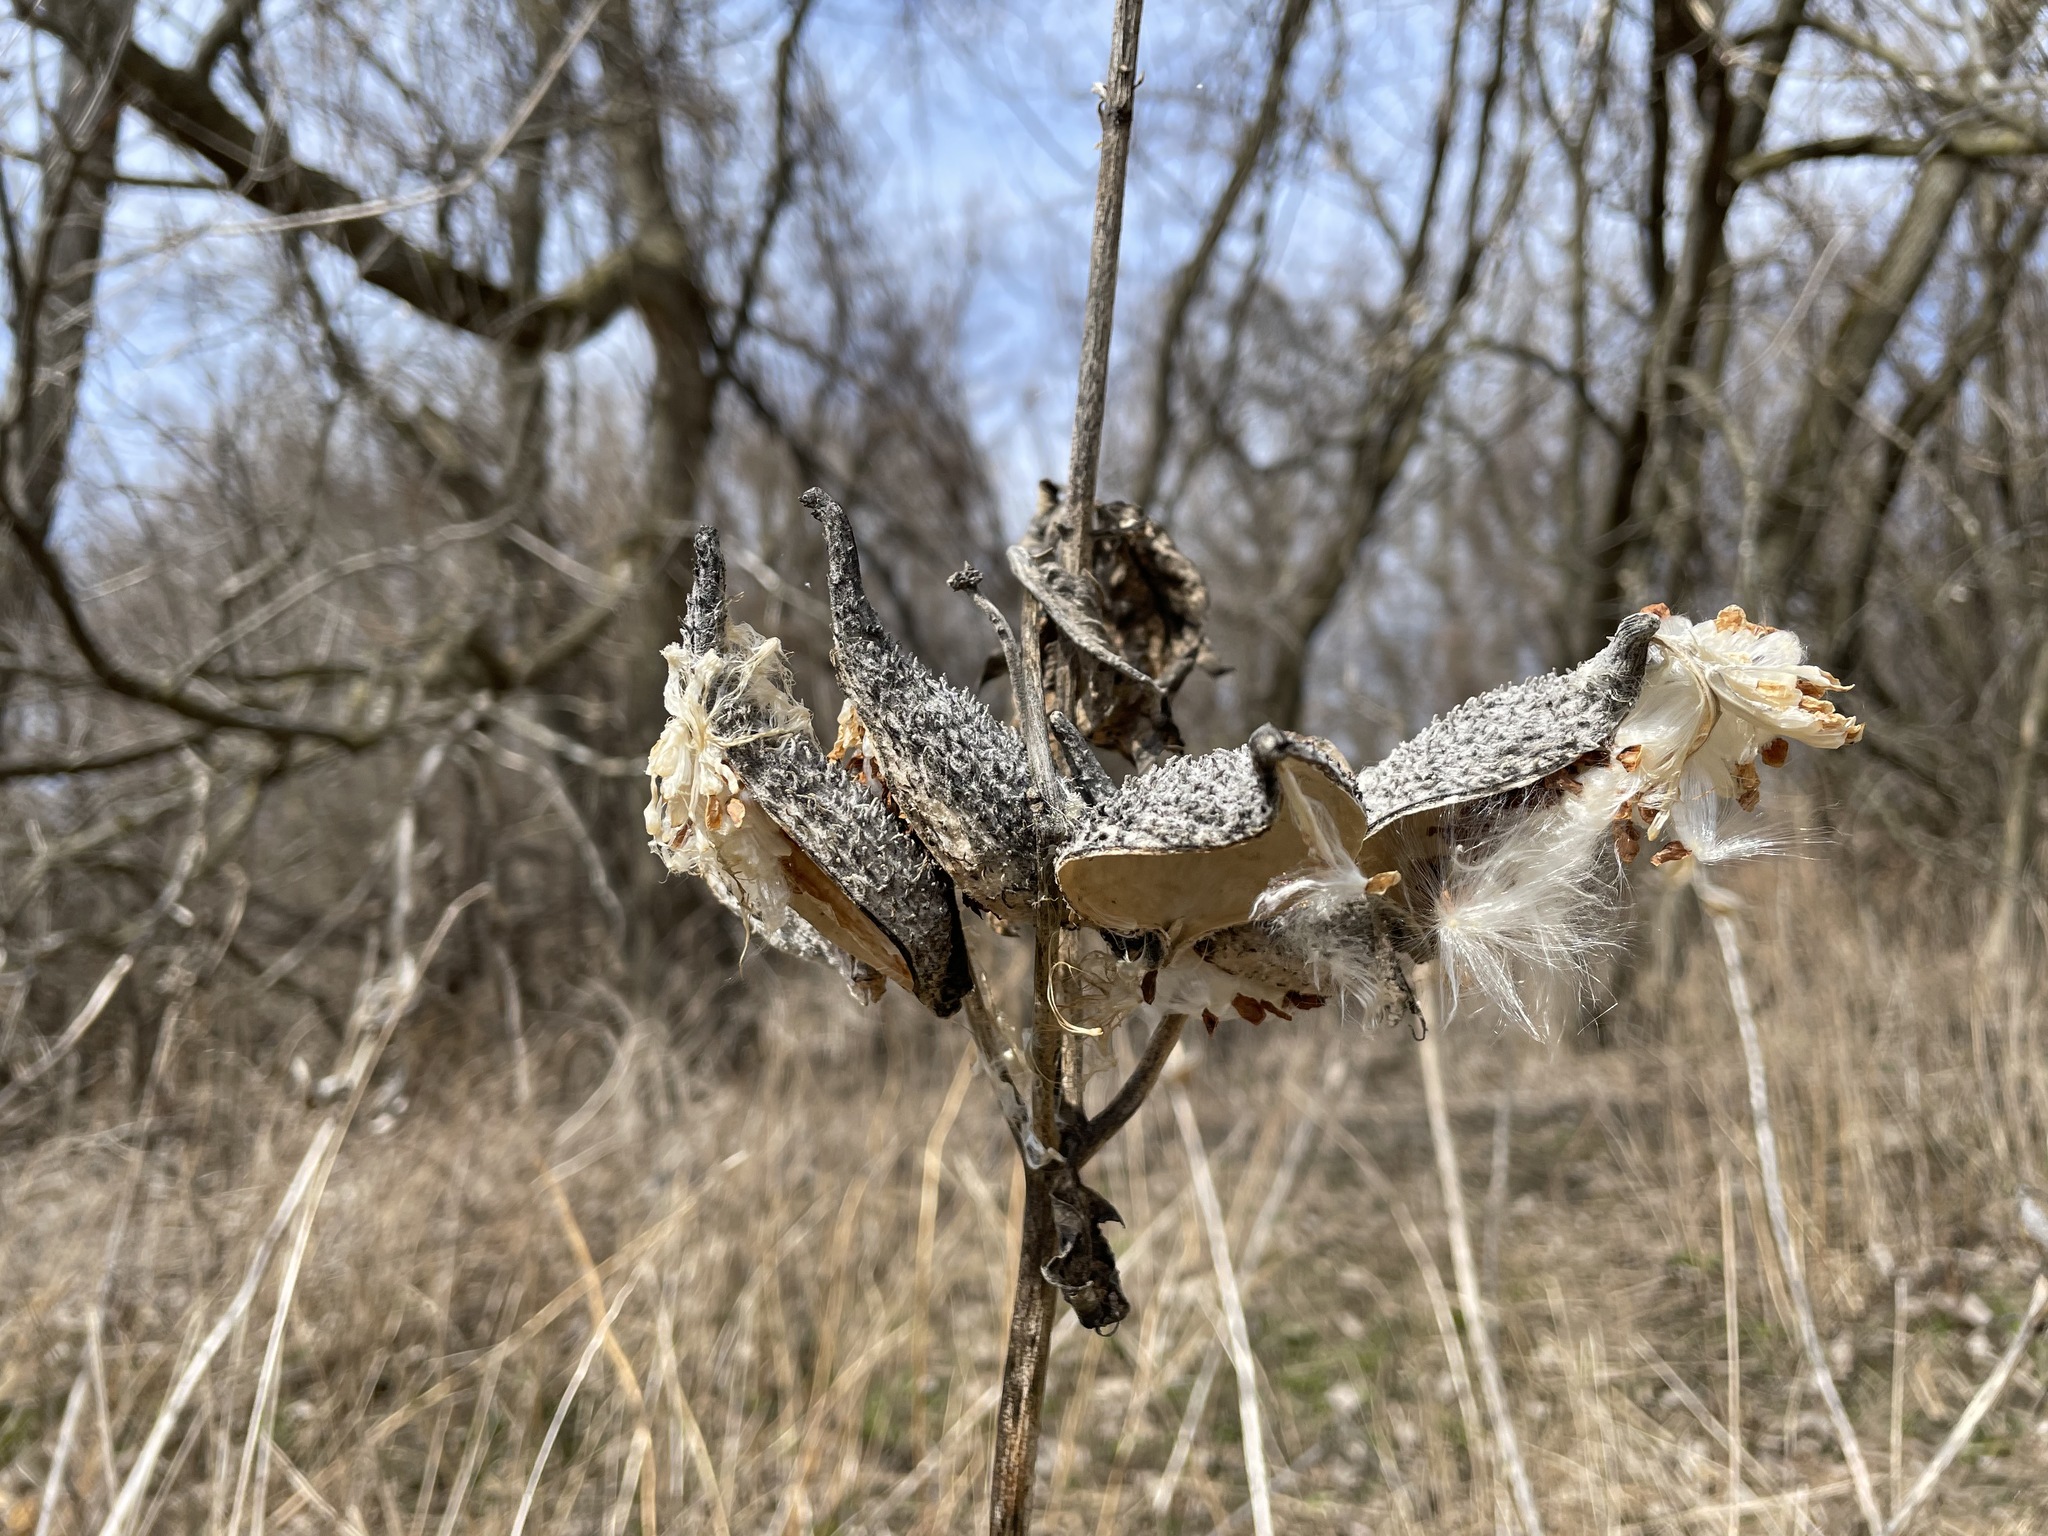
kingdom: Plantae
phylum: Tracheophyta
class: Magnoliopsida
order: Gentianales
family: Apocynaceae
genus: Asclepias
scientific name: Asclepias syriaca
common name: Common milkweed
